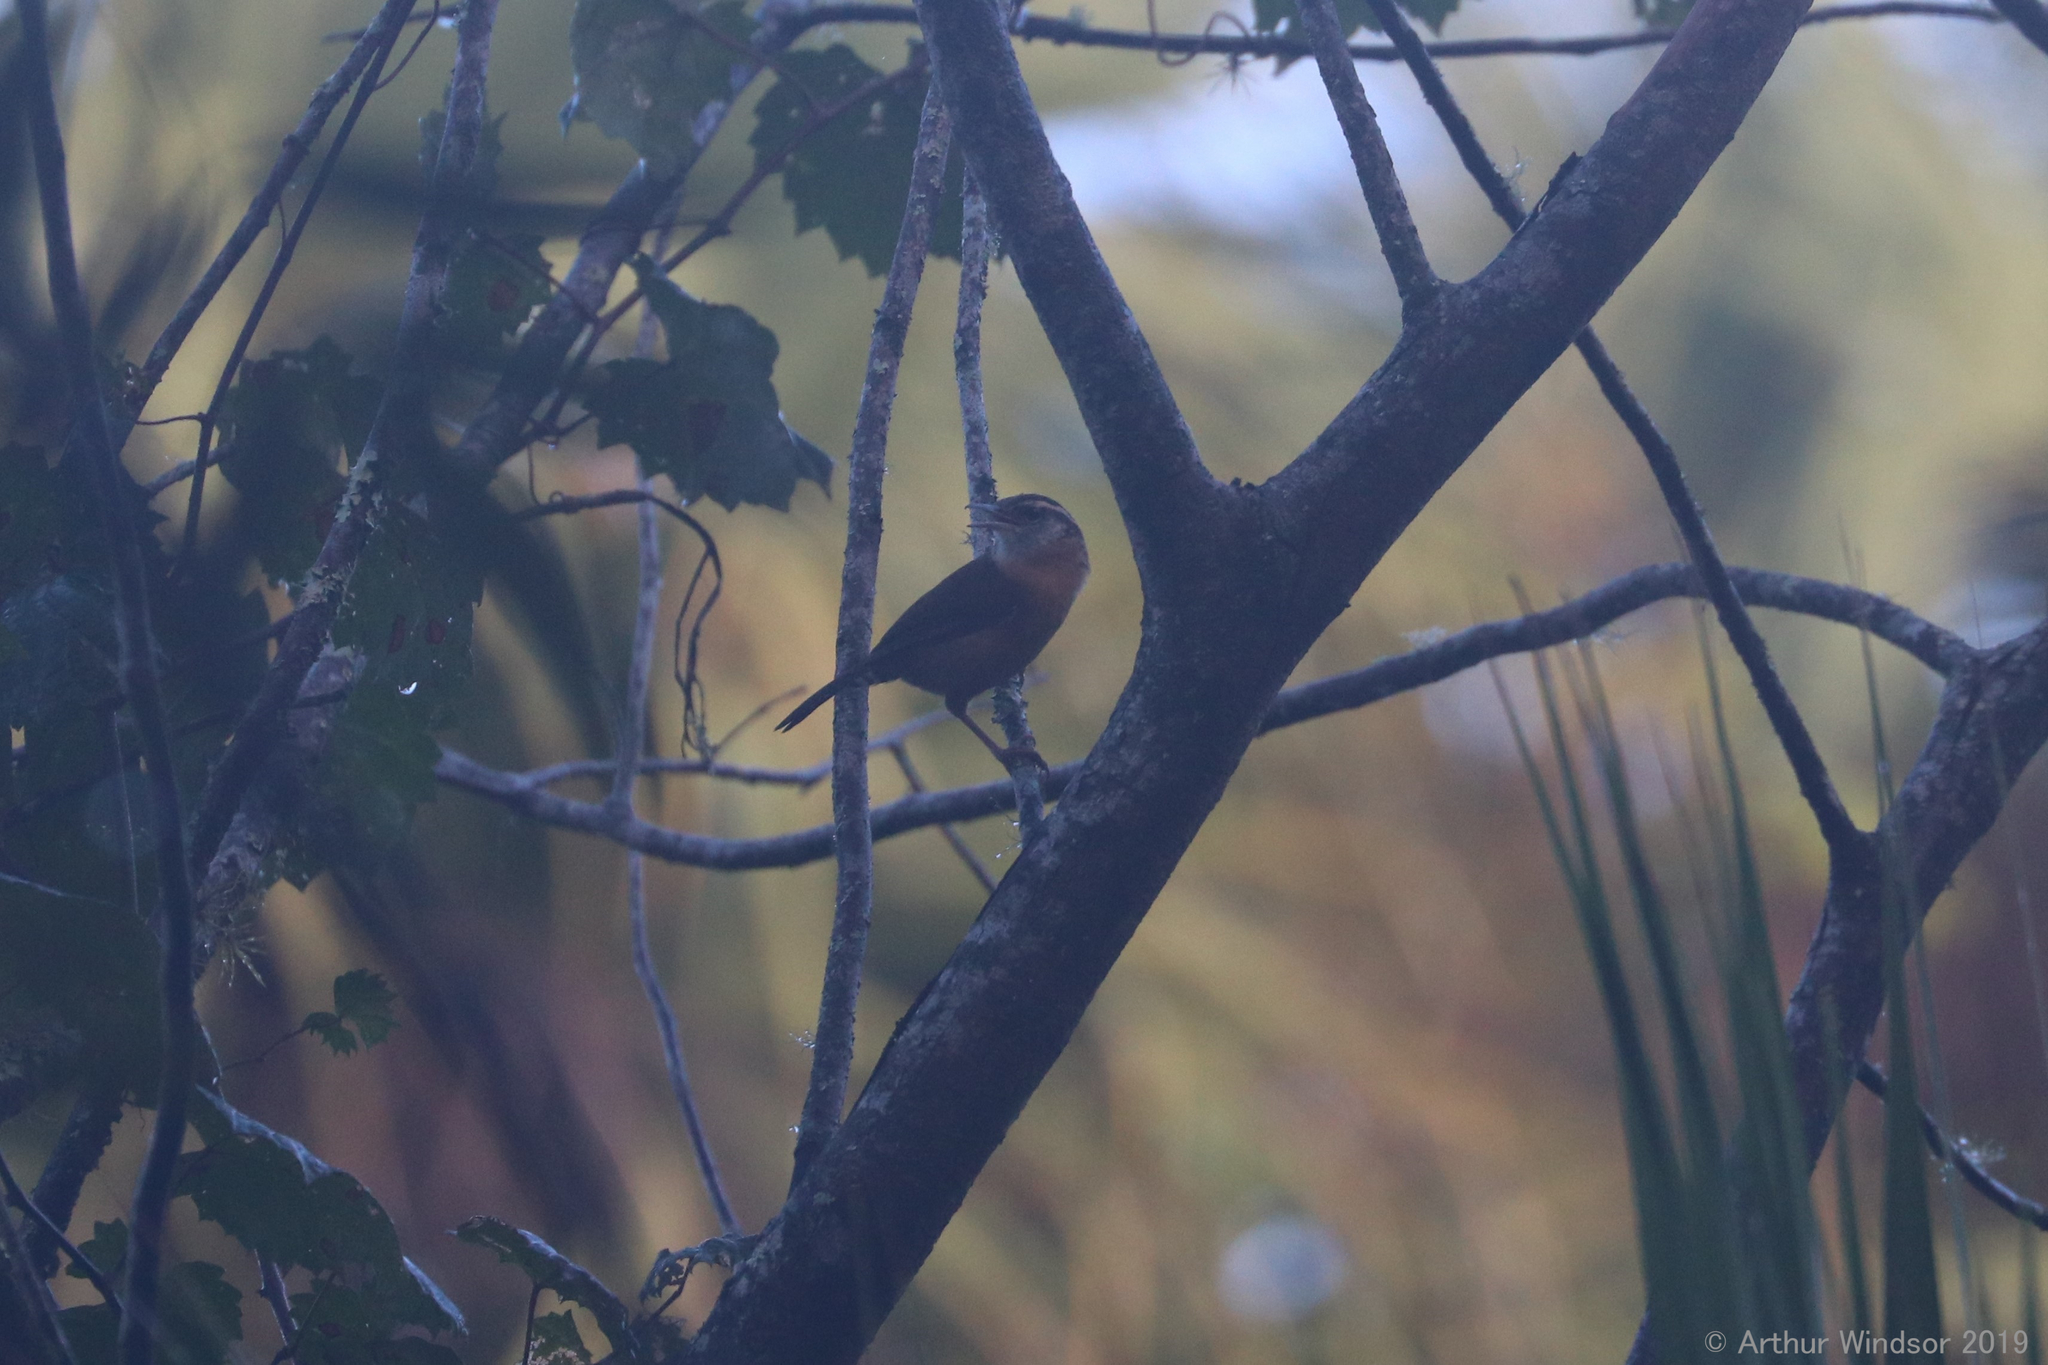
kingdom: Animalia
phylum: Chordata
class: Aves
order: Passeriformes
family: Troglodytidae
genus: Thryothorus
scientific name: Thryothorus ludovicianus
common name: Carolina wren
